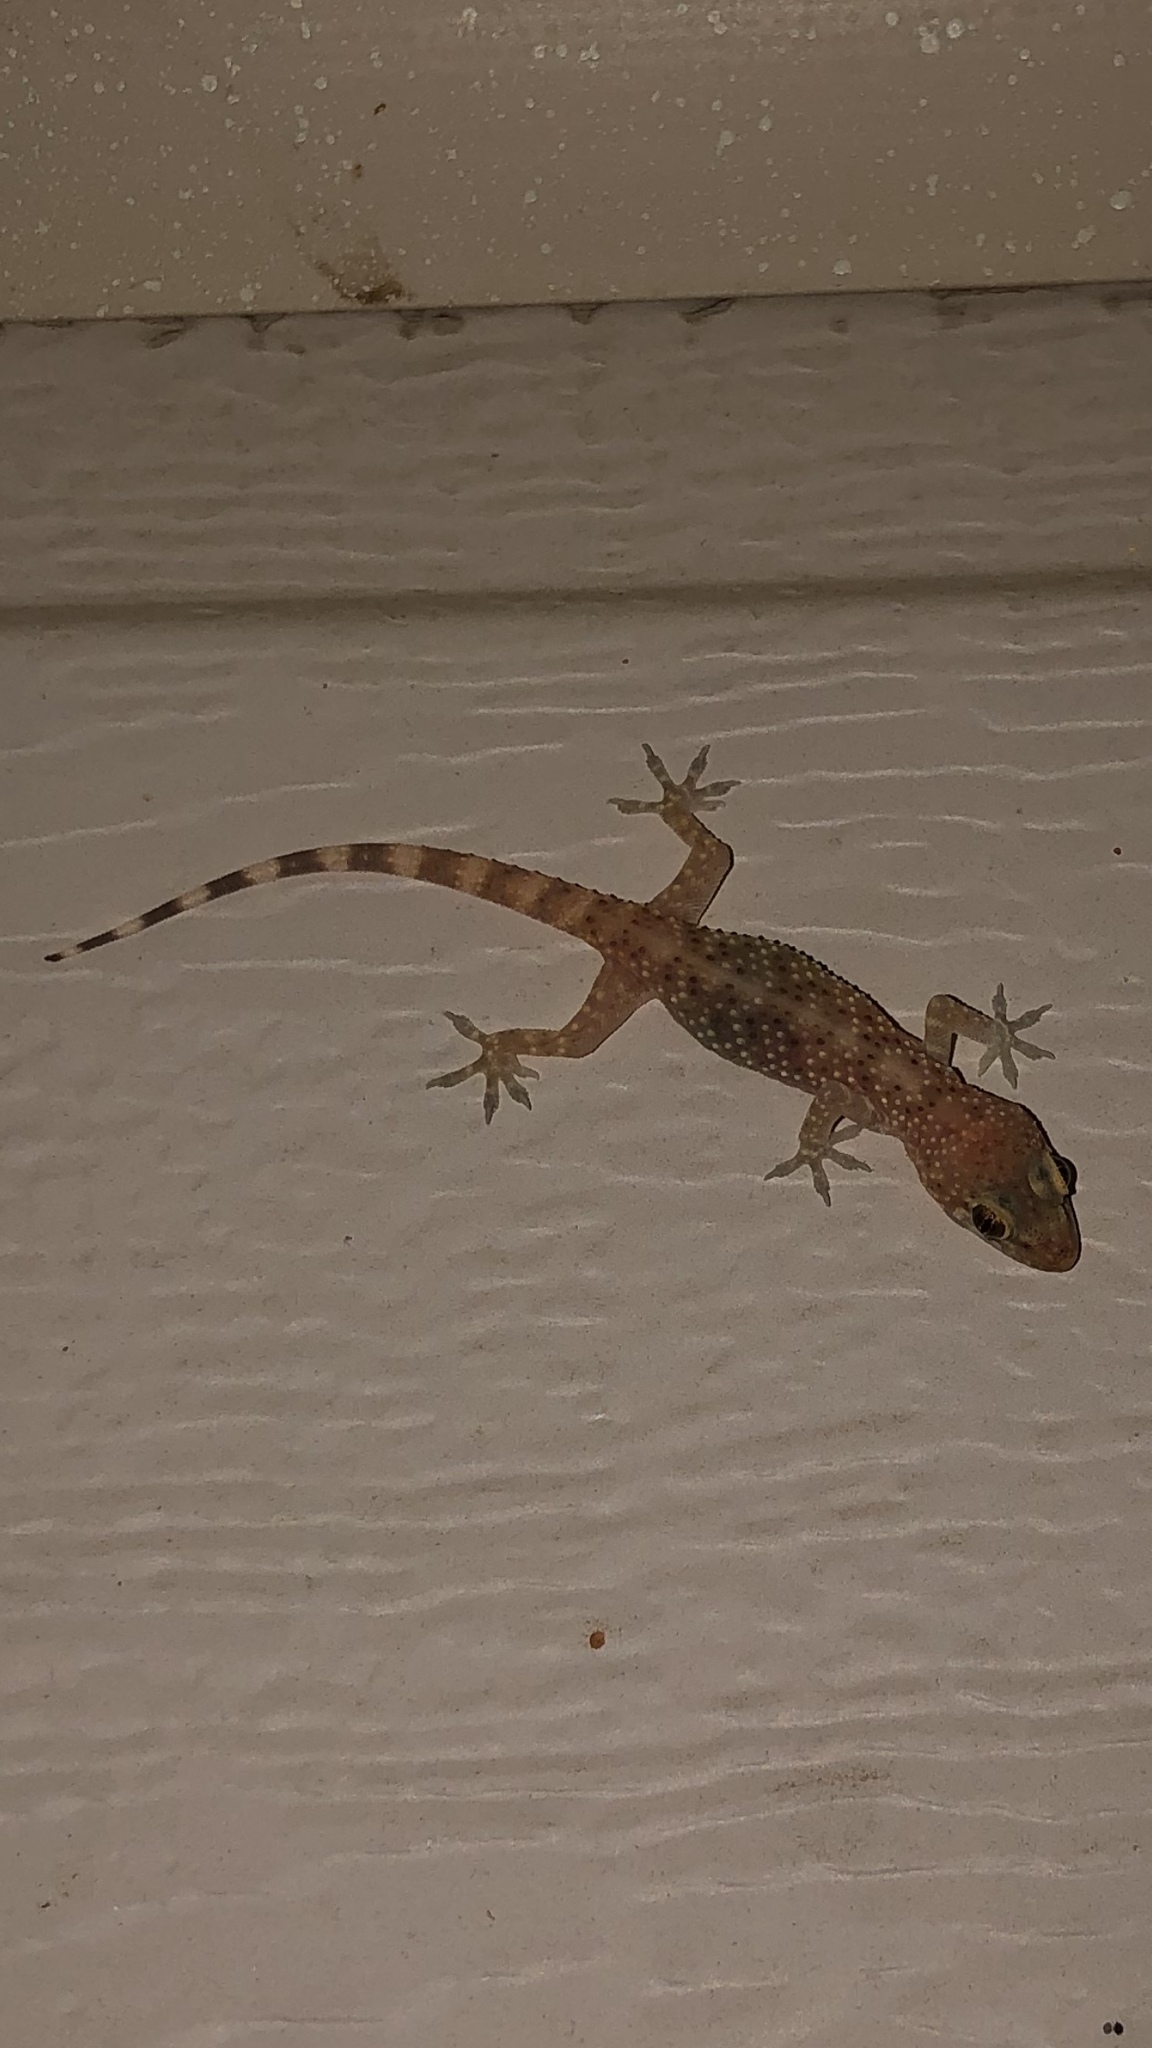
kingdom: Animalia
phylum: Chordata
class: Squamata
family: Gekkonidae
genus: Hemidactylus
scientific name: Hemidactylus turcicus
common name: Turkish gecko
